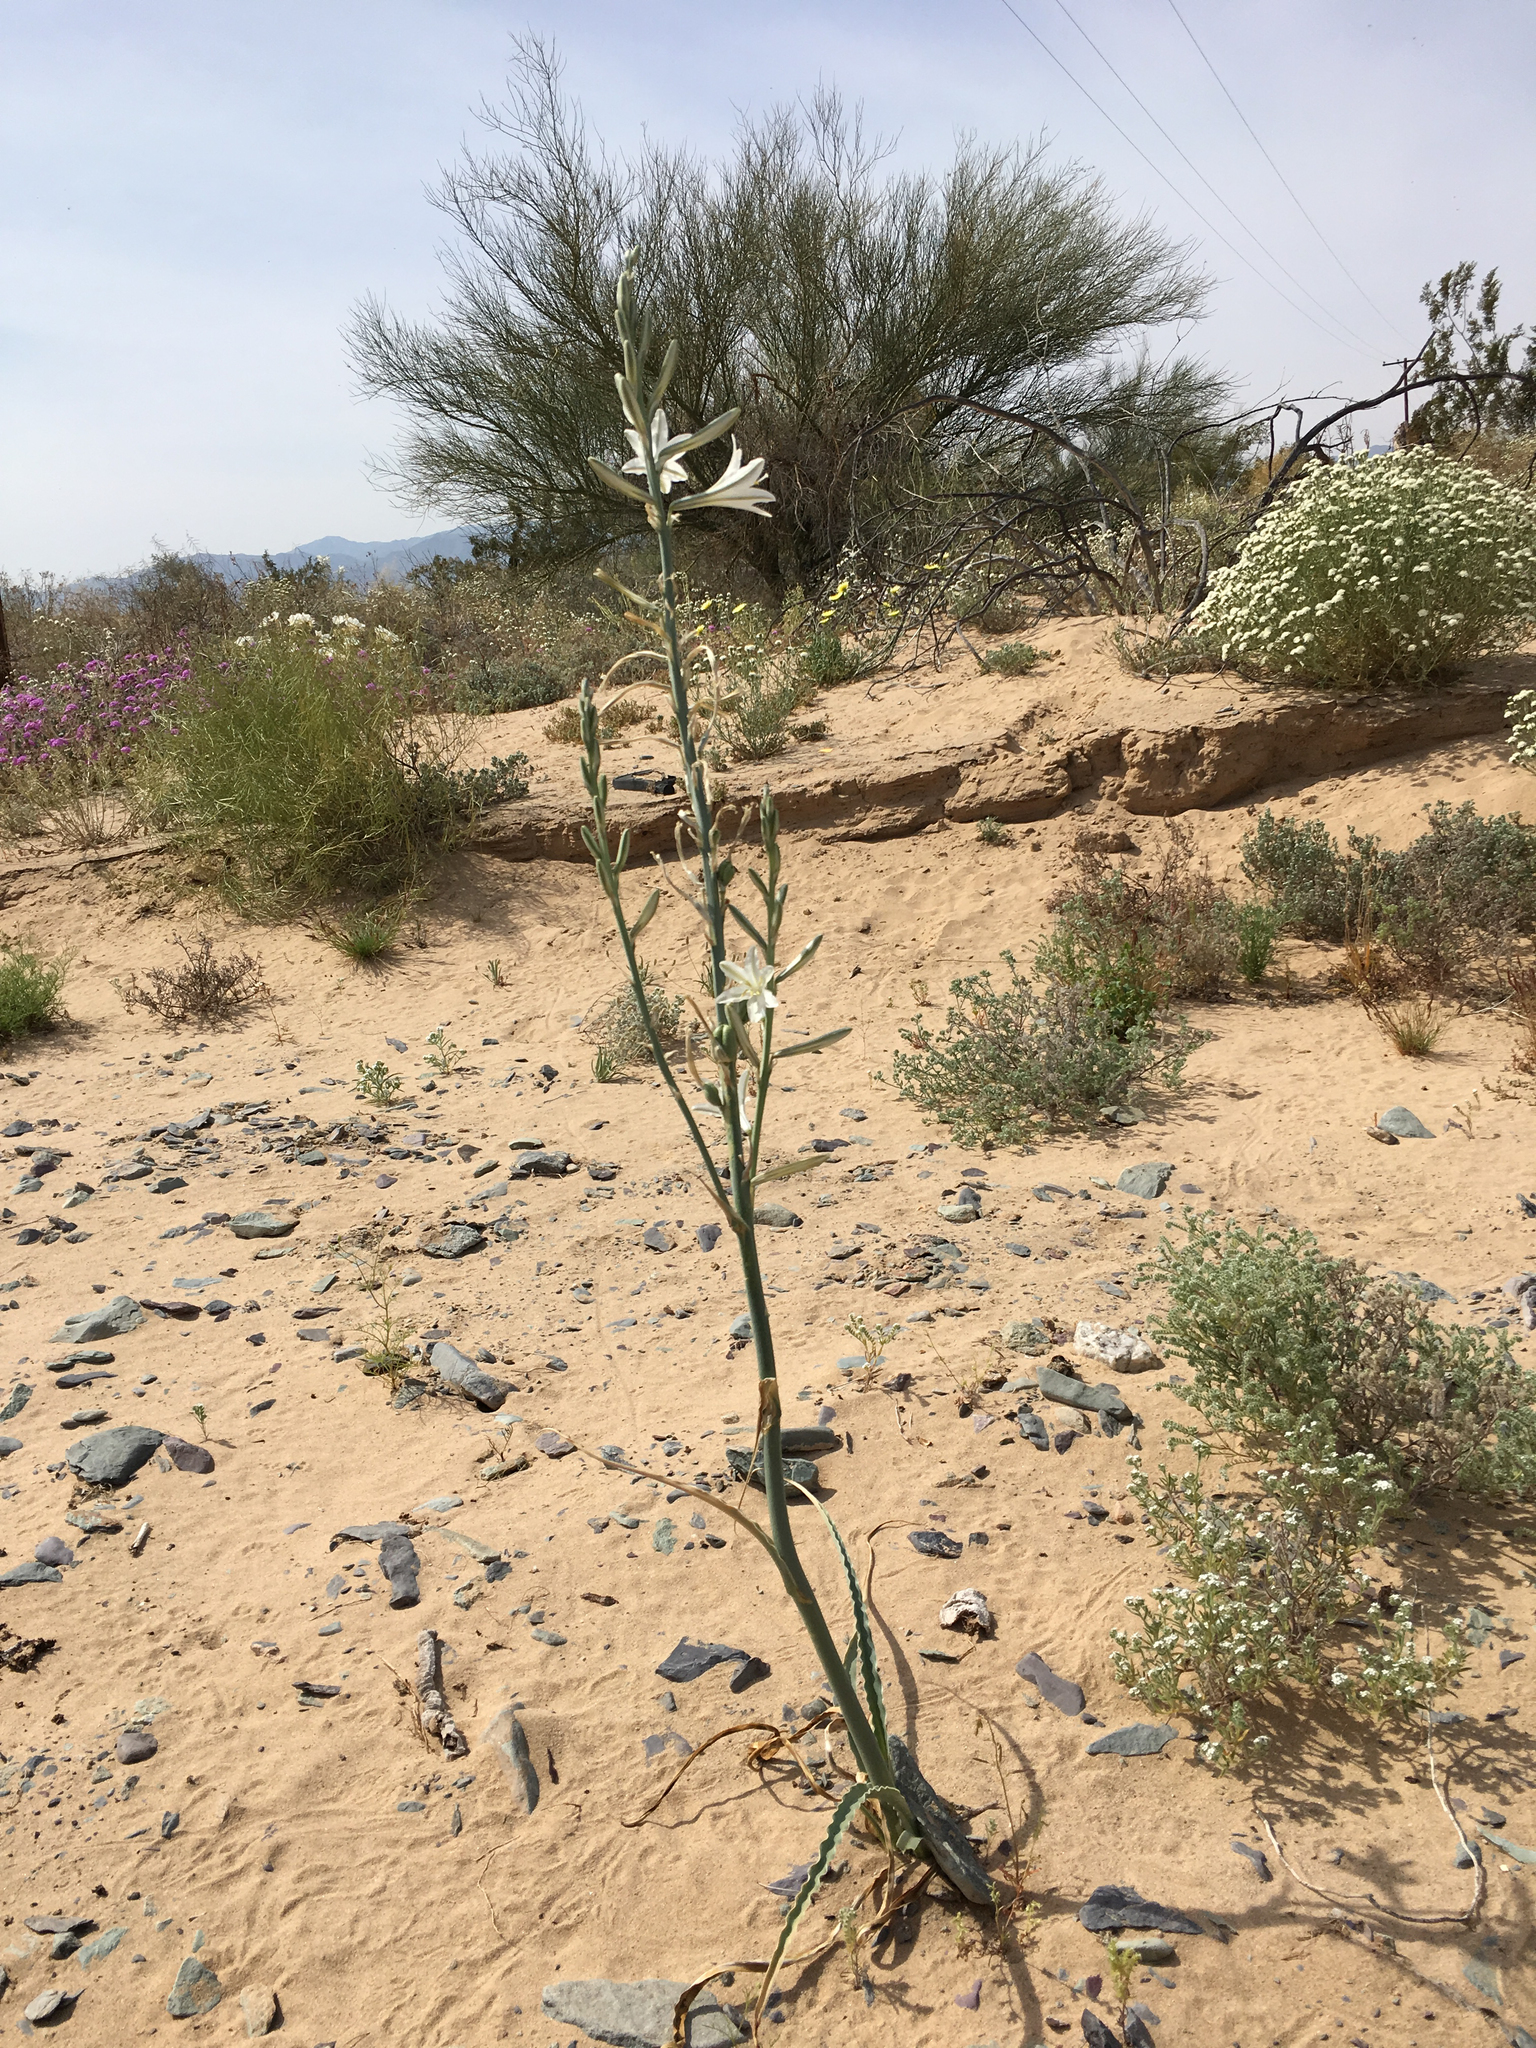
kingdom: Plantae
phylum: Tracheophyta
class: Liliopsida
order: Asparagales
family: Asparagaceae
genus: Hesperocallis
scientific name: Hesperocallis undulata
